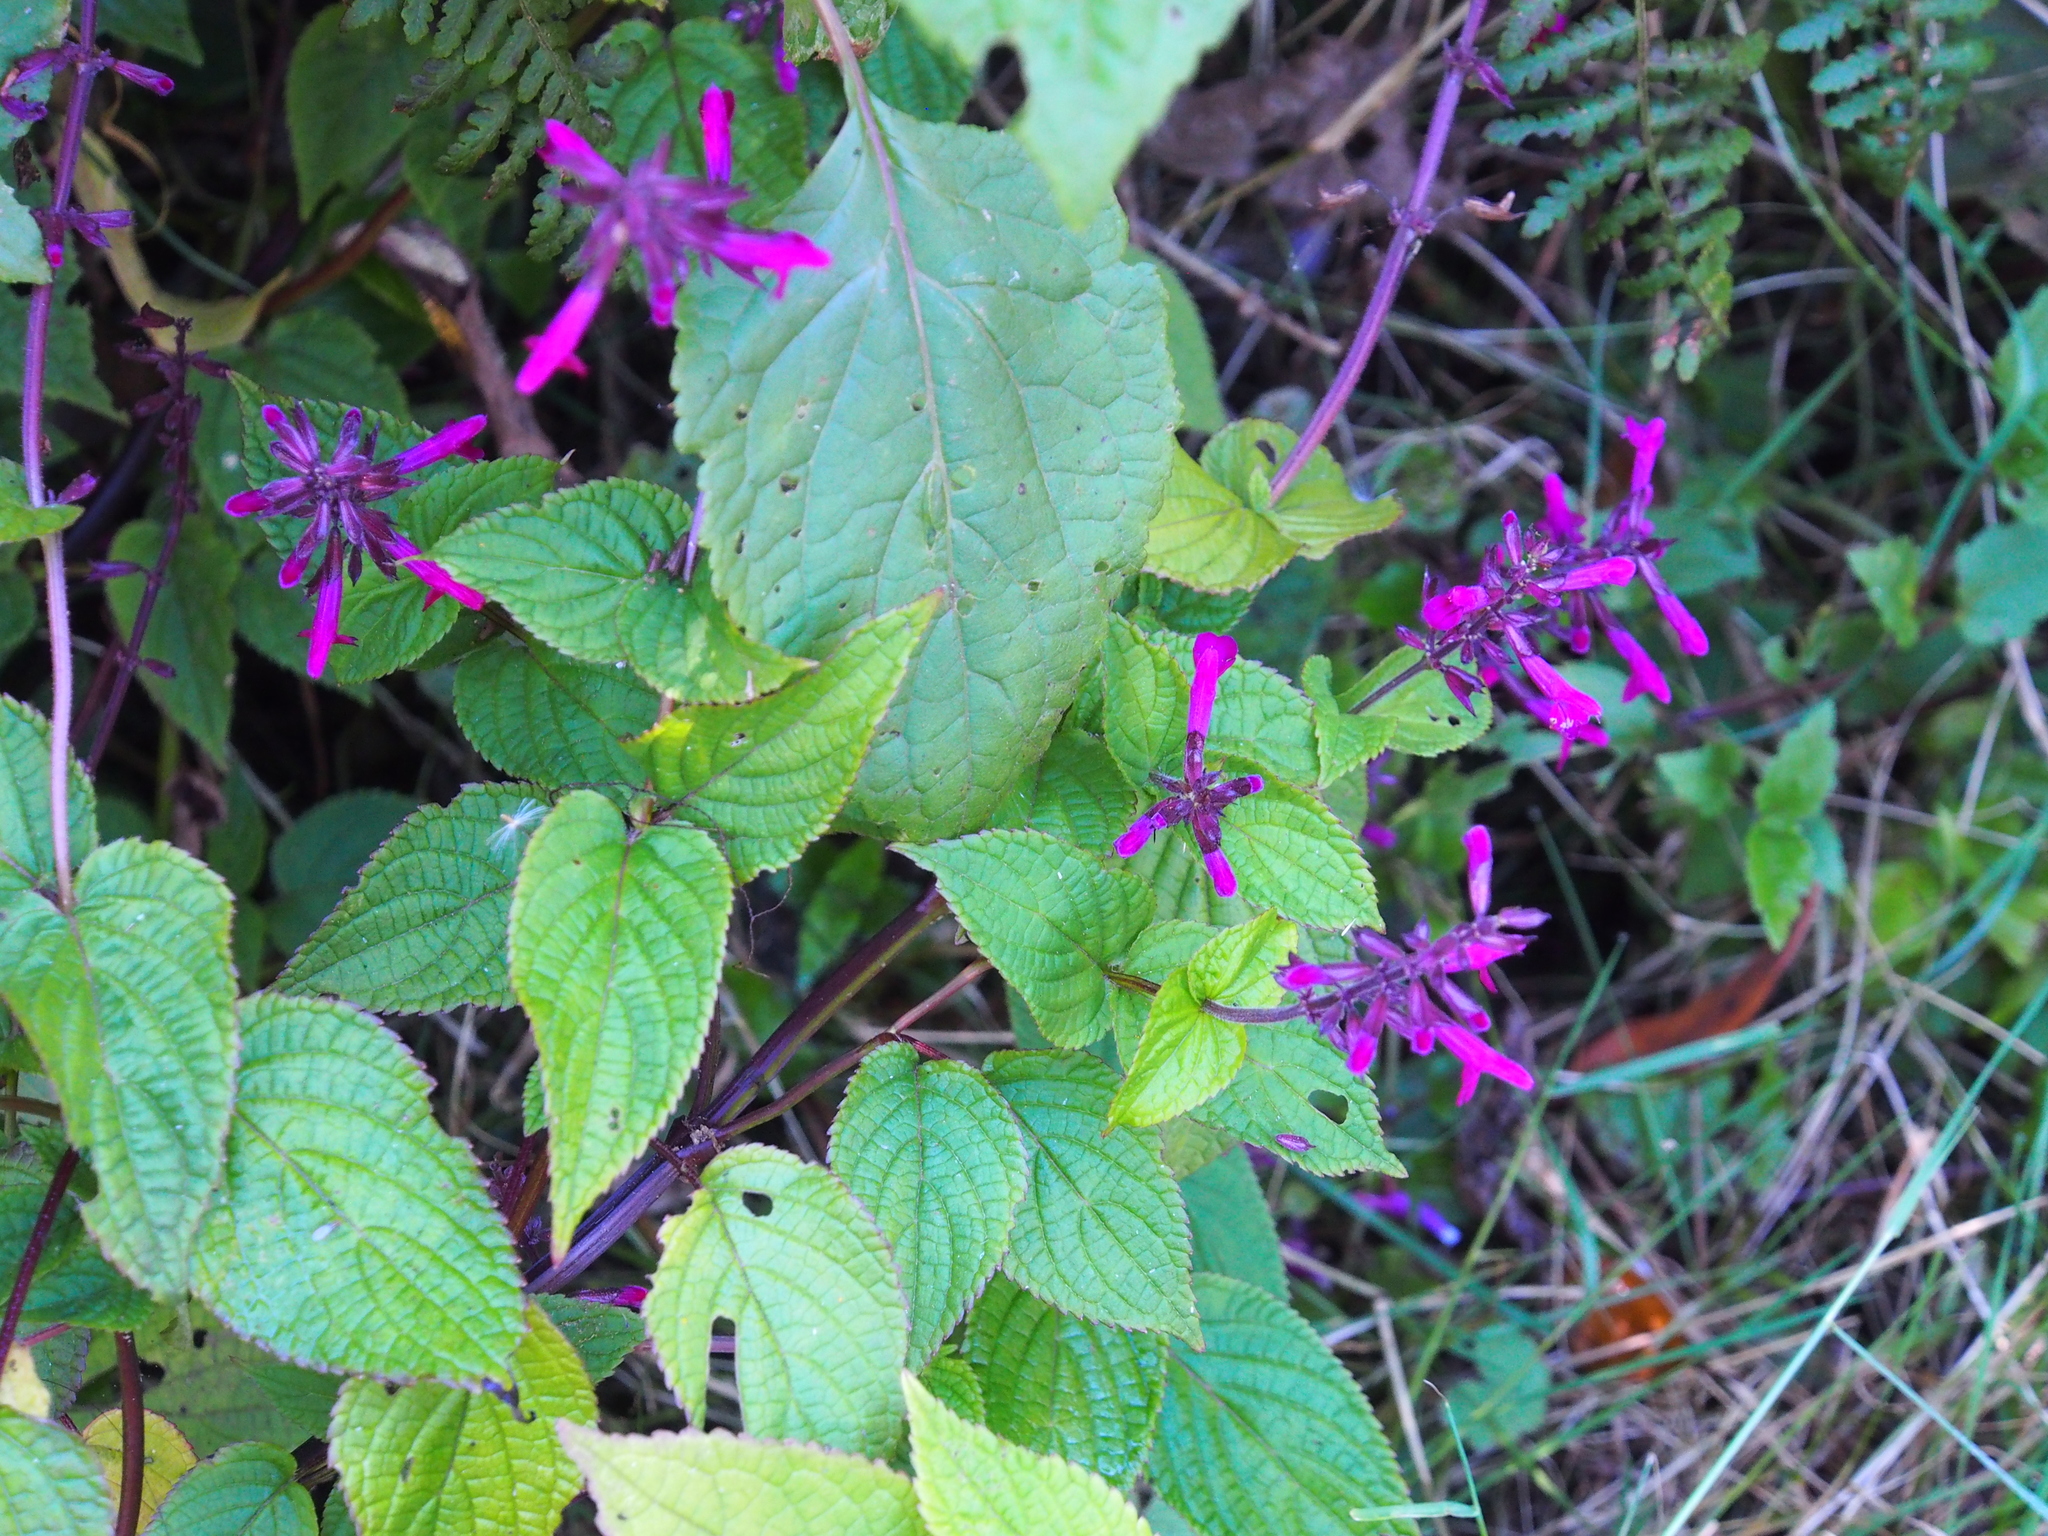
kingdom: Plantae
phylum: Tracheophyta
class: Magnoliopsida
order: Lamiales
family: Lamiaceae
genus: Salvia
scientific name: Salvia carnea
